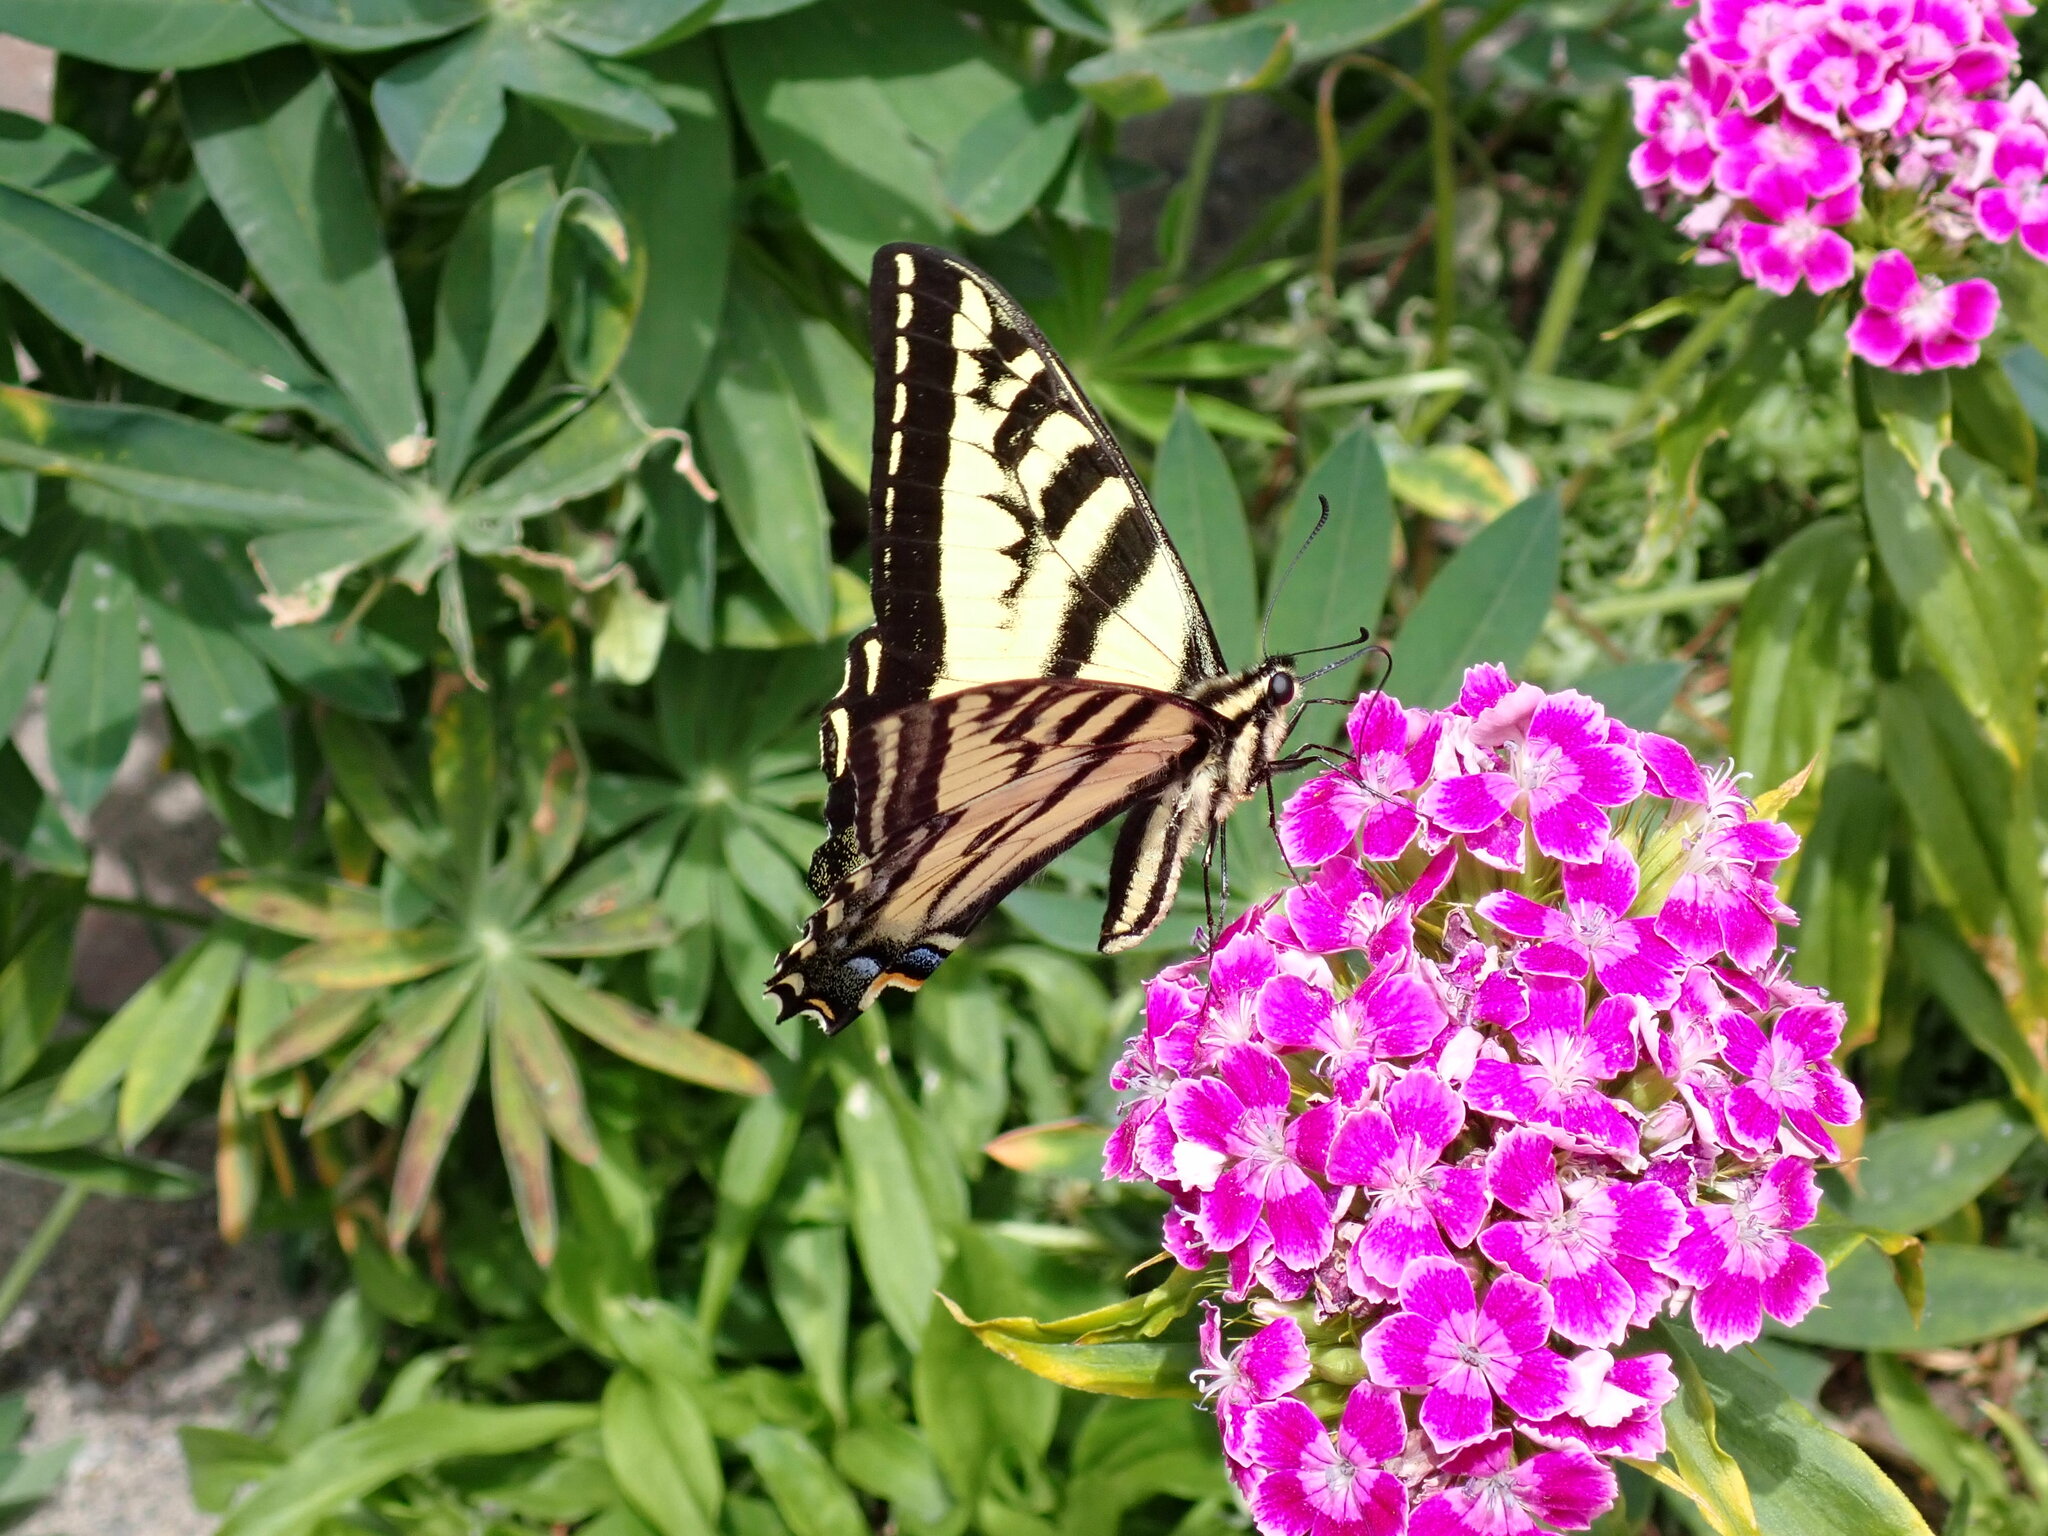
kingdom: Animalia
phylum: Arthropoda
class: Insecta
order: Lepidoptera
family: Papilionidae
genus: Papilio
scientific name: Papilio rutulus
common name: Western tiger swallowtail
